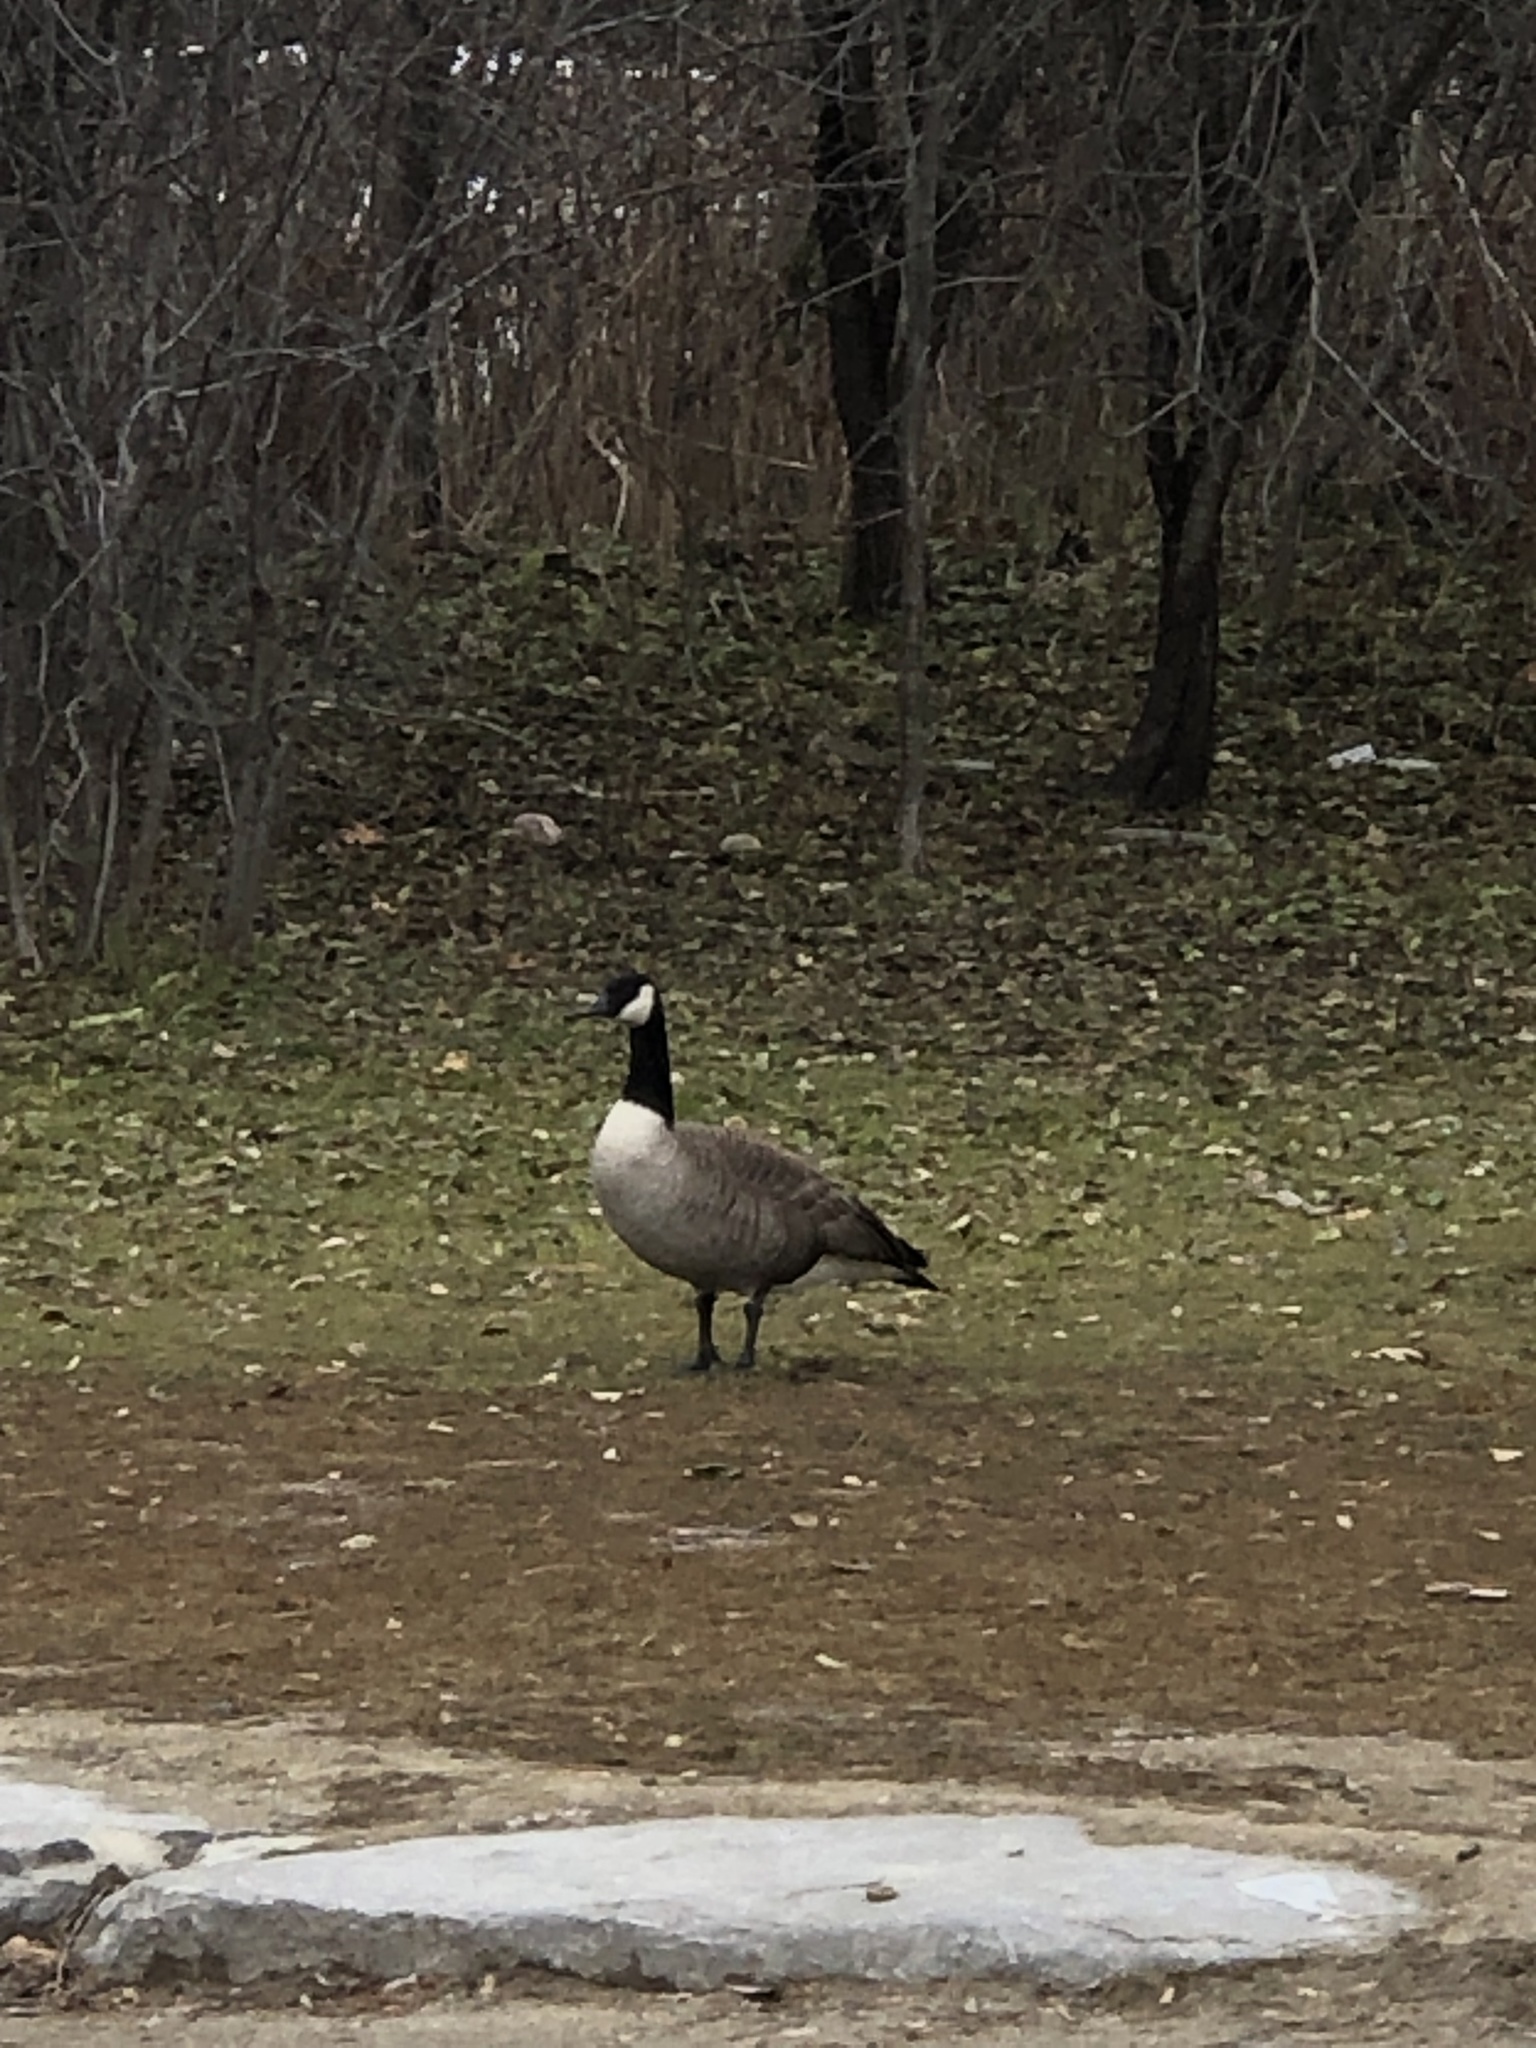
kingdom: Animalia
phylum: Chordata
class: Aves
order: Anseriformes
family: Anatidae
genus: Branta
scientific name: Branta canadensis
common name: Canada goose
